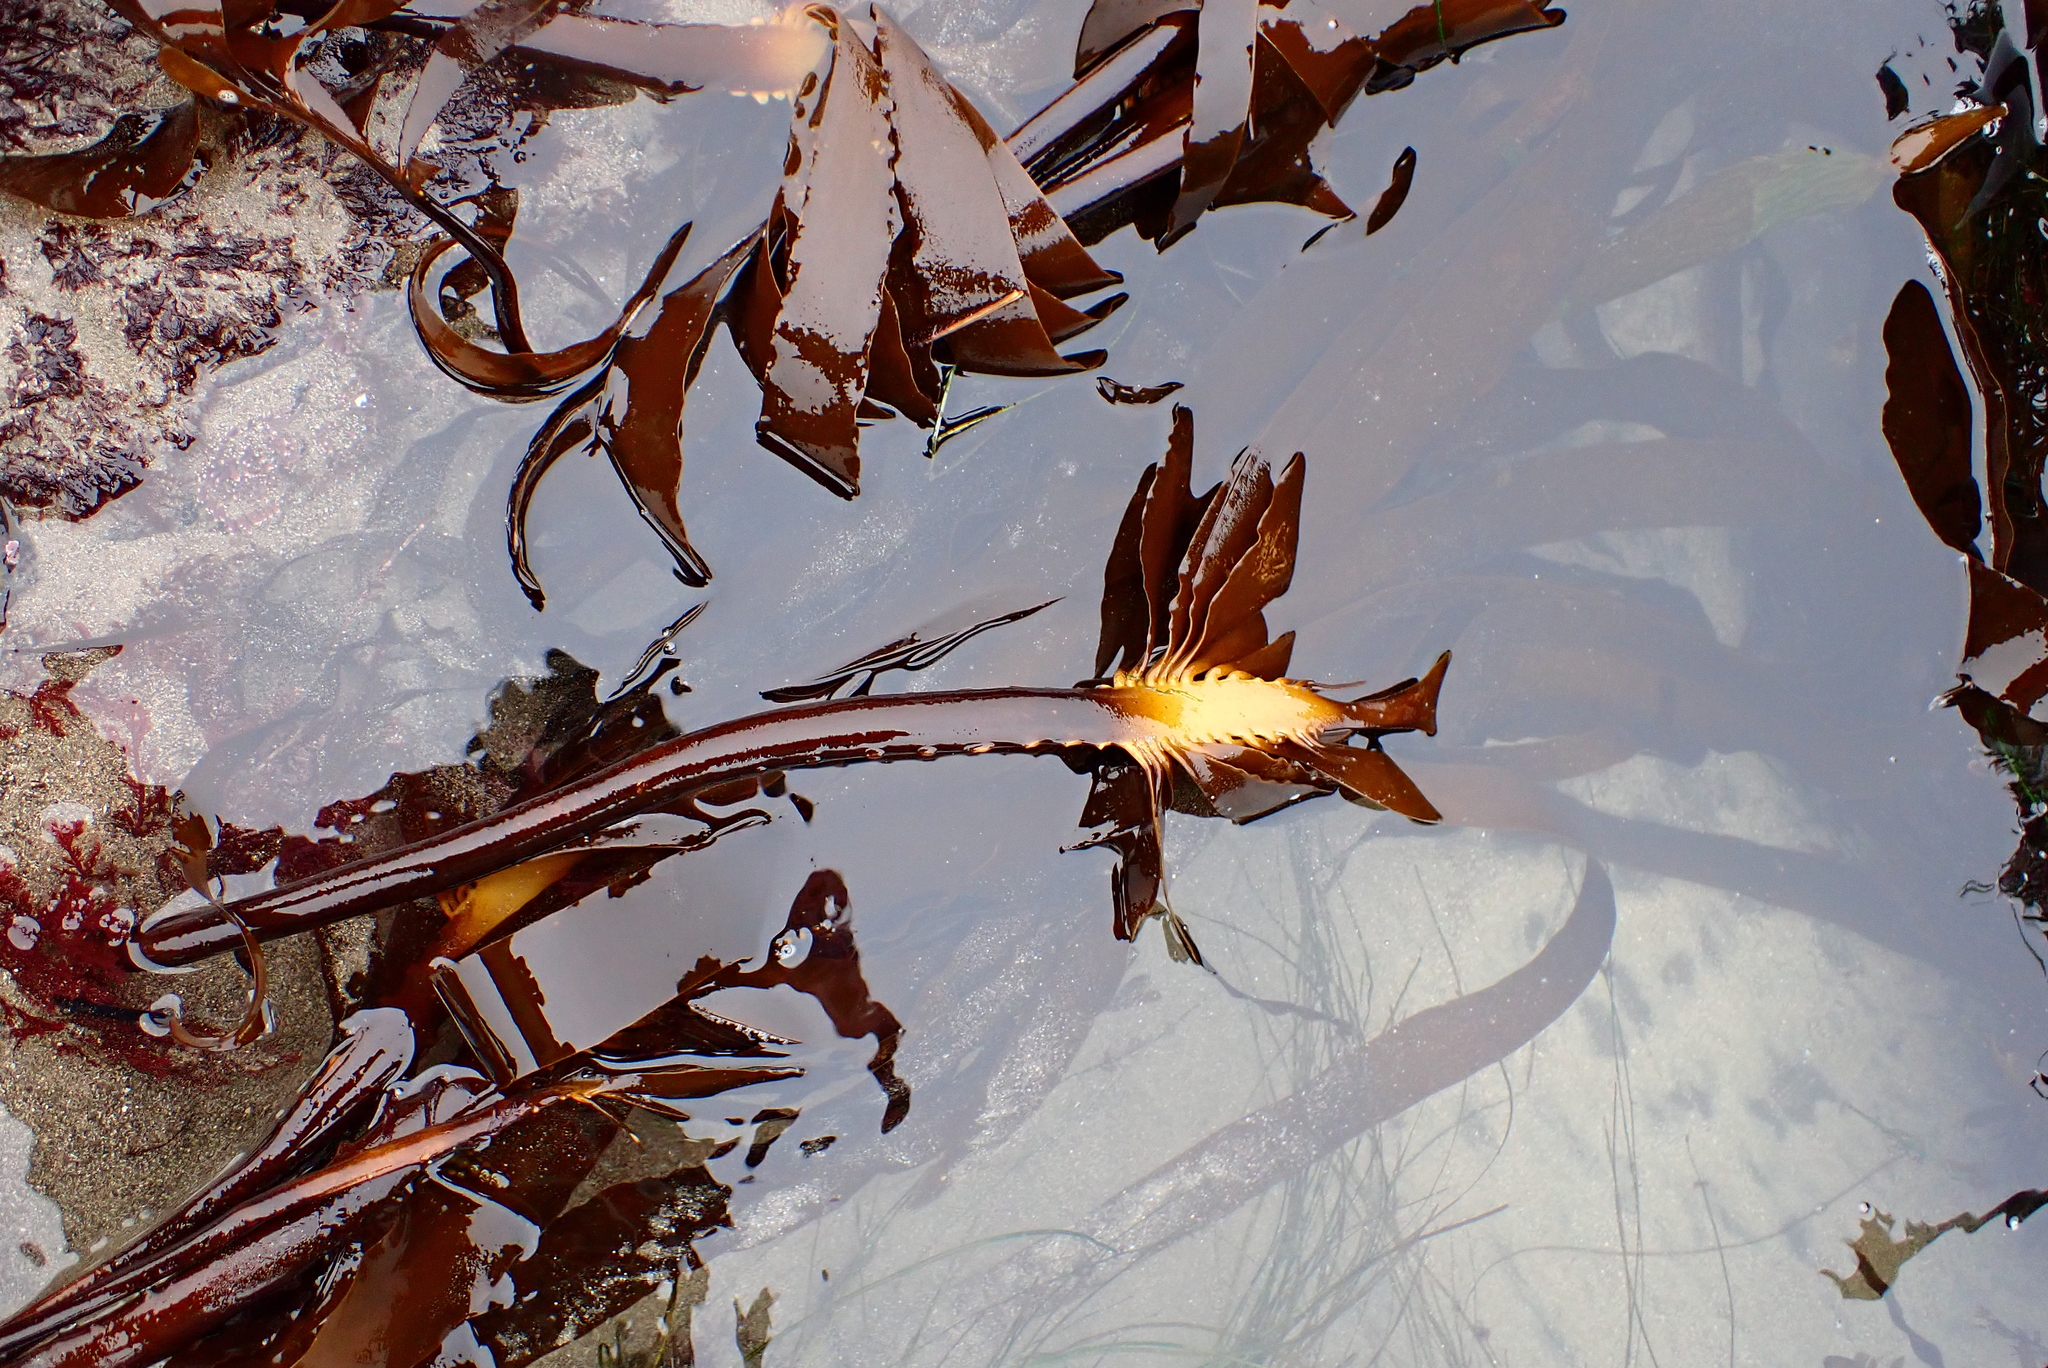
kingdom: Chromista
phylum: Ochrophyta
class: Phaeophyceae
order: Laminariales
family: Alariaceae
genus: Pterygophora
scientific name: Pterygophora californica
